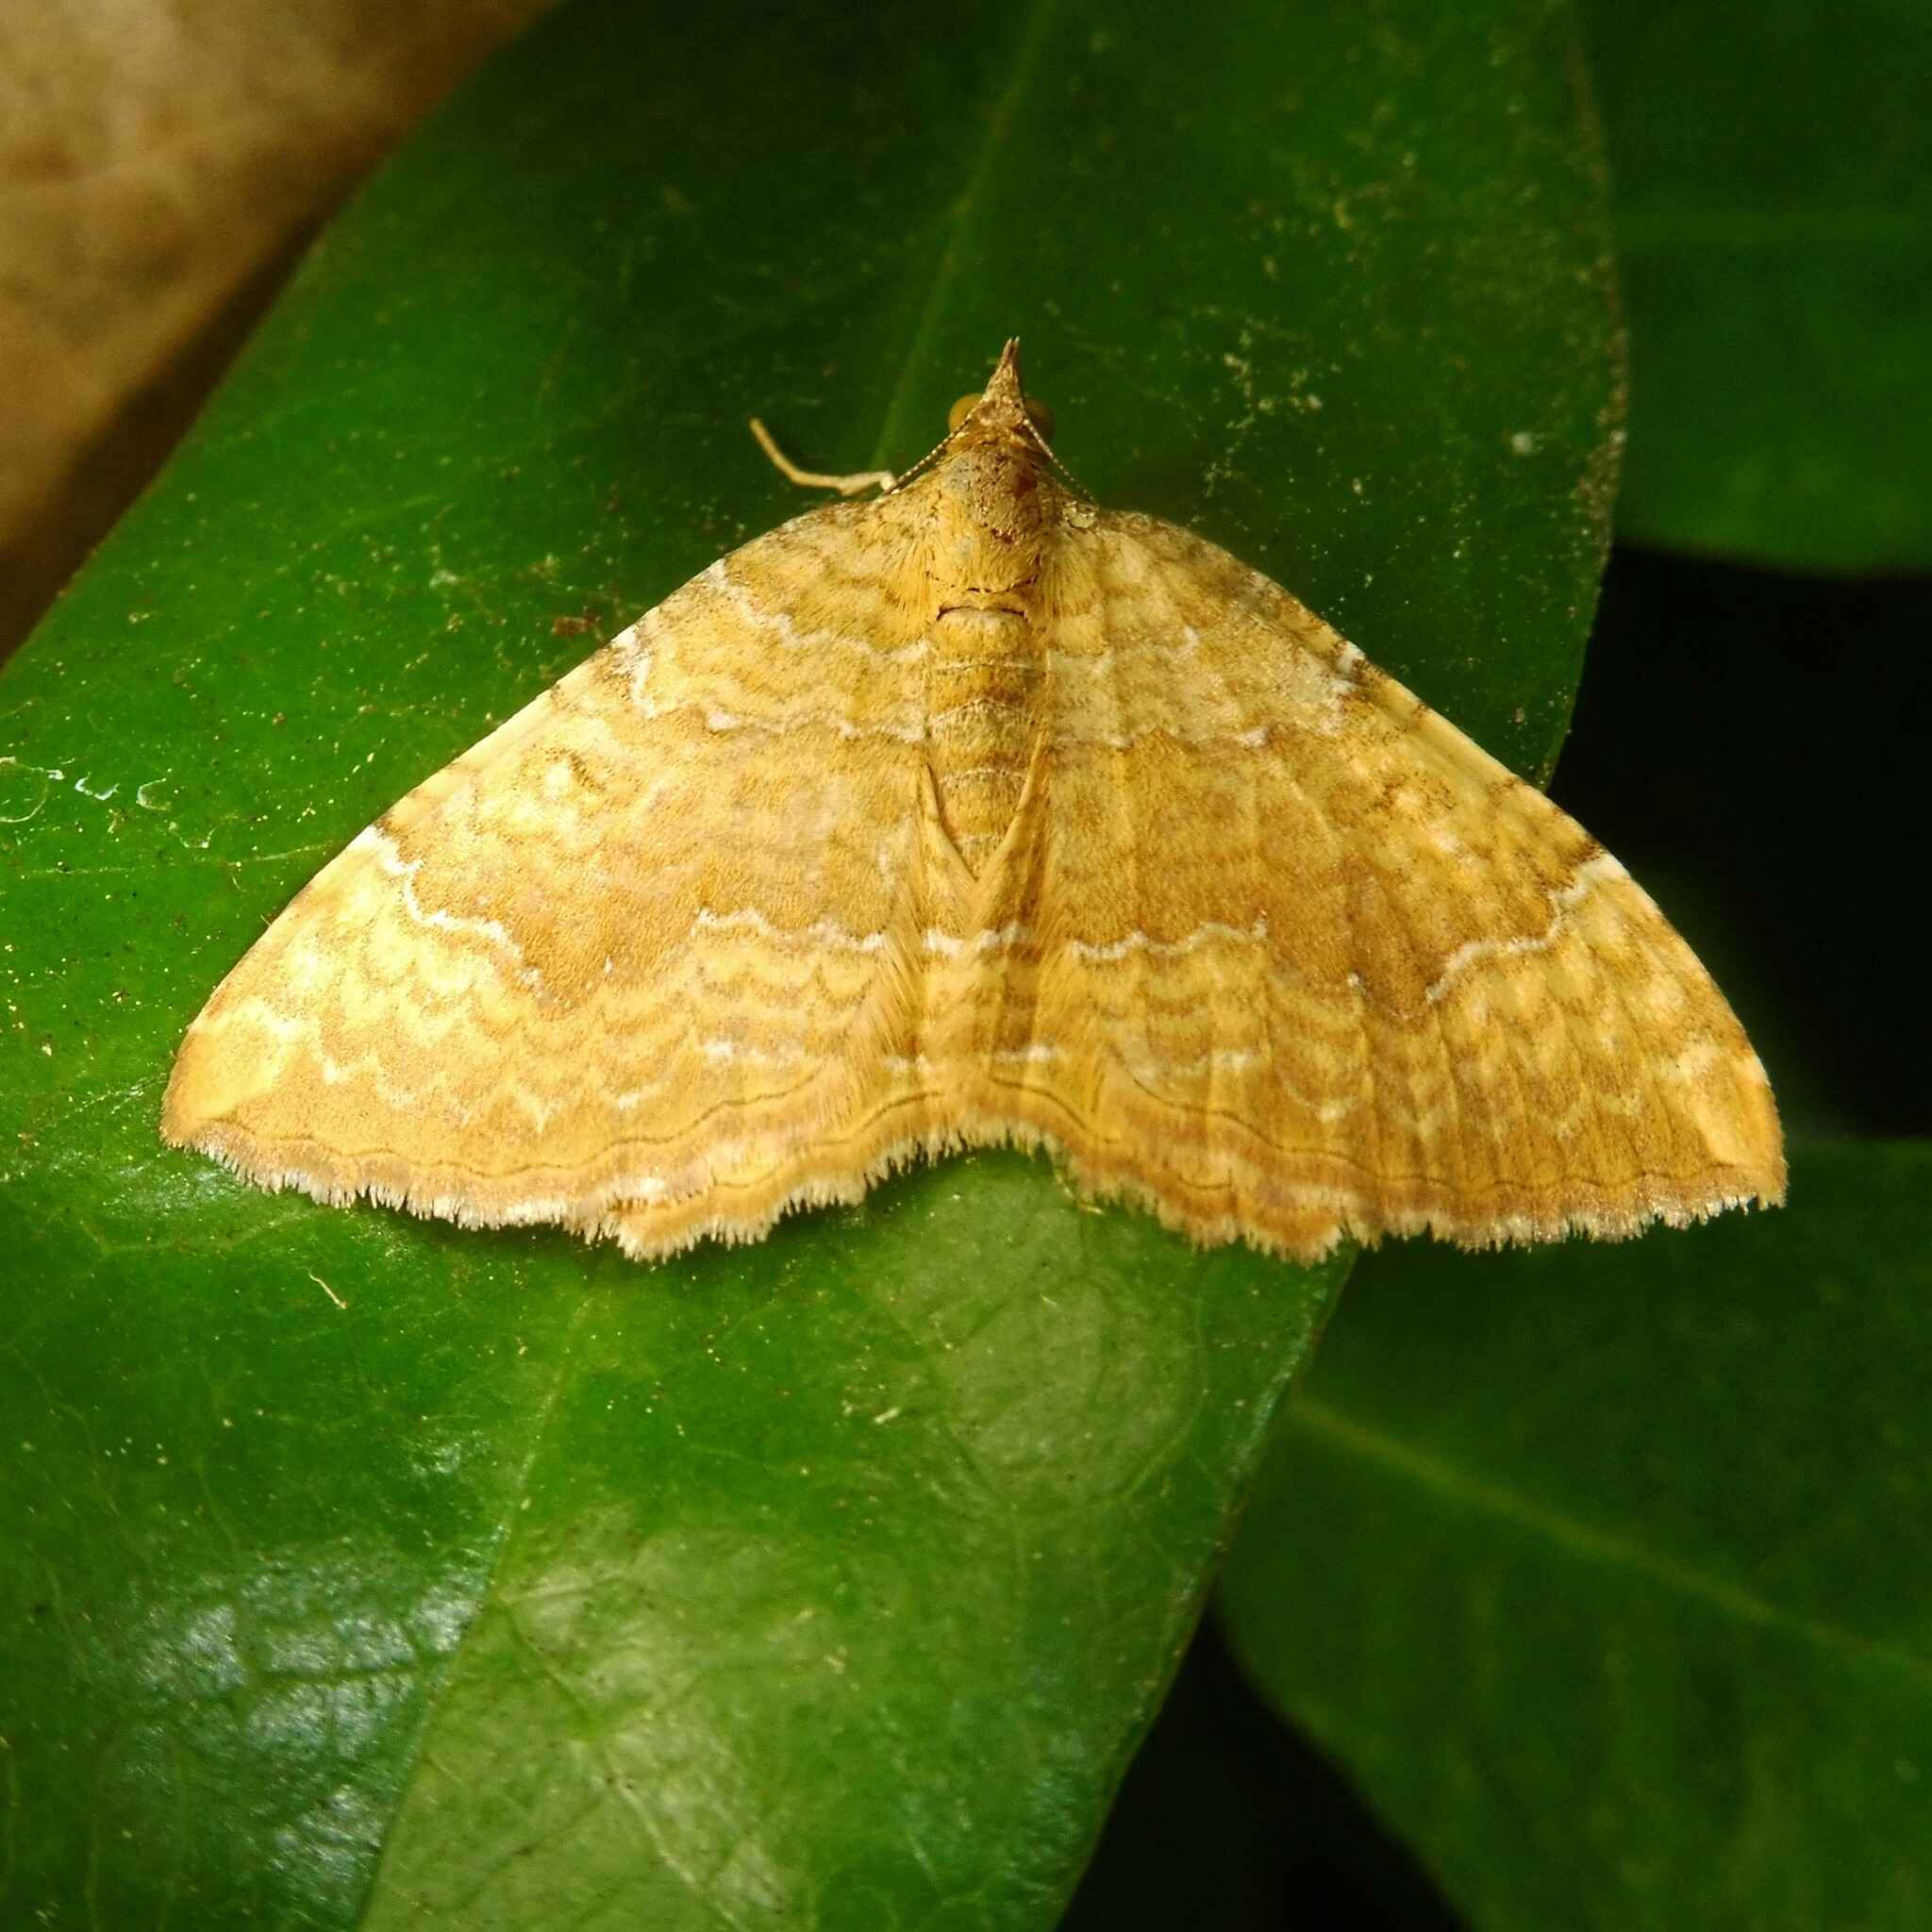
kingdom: Animalia
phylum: Arthropoda
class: Insecta
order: Lepidoptera
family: Geometridae
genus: Camptogramma
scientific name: Camptogramma bilineata
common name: Yellow shell
